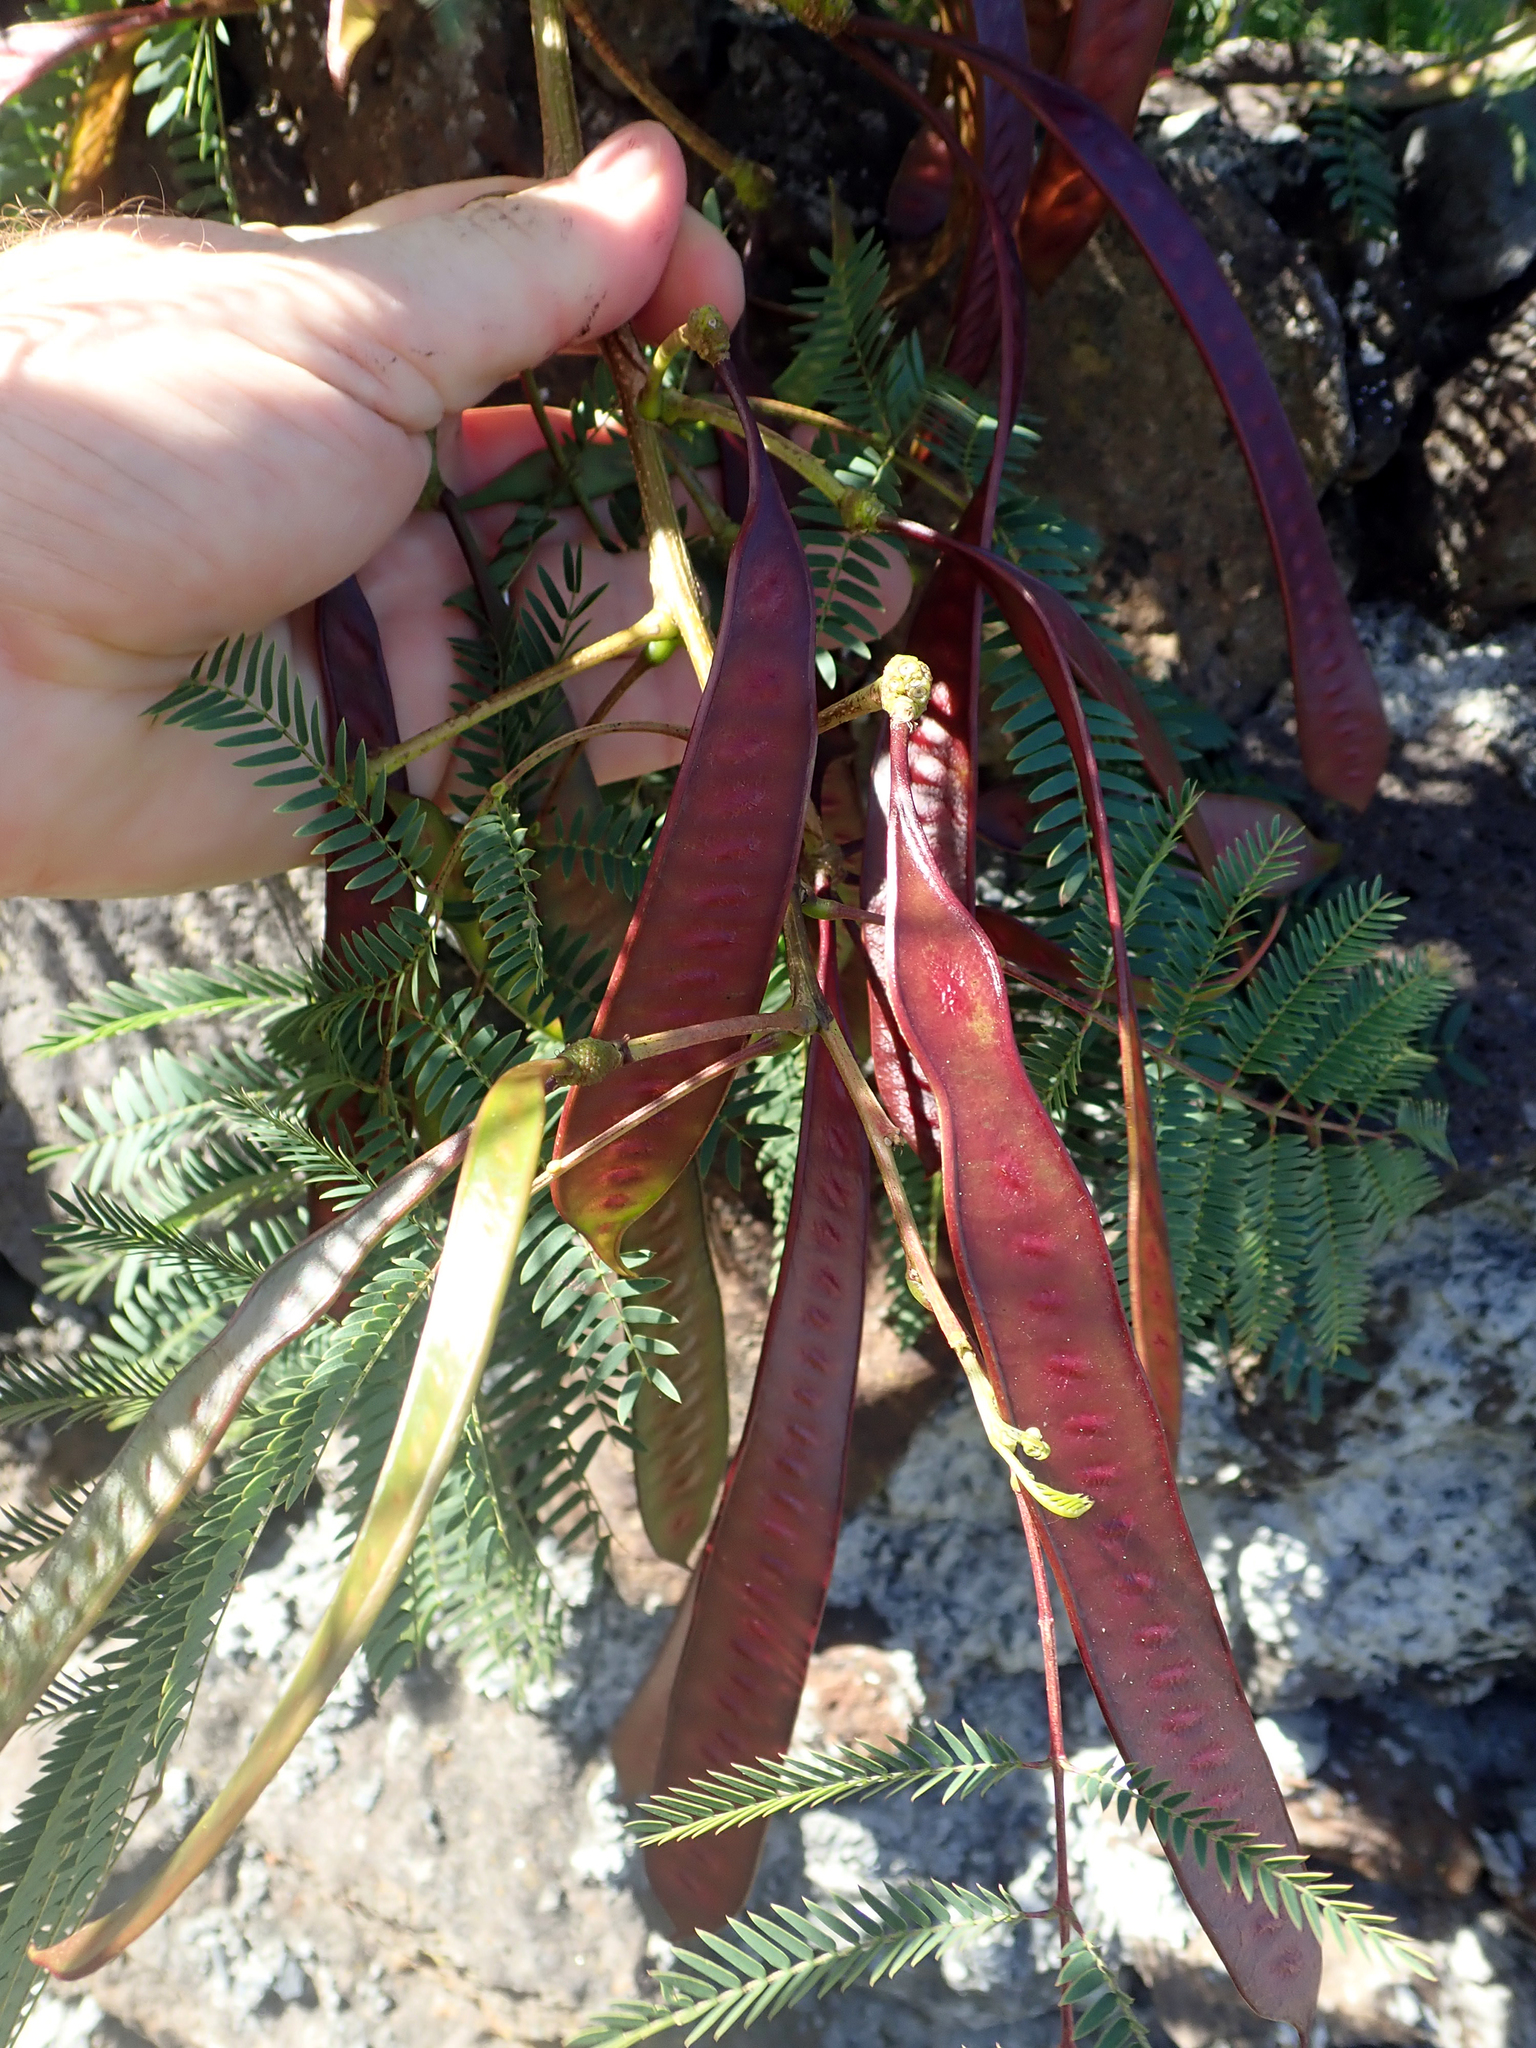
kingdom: Plantae
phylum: Tracheophyta
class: Magnoliopsida
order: Fabales
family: Fabaceae
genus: Leucaena
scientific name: Leucaena leucocephala
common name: White leadtree
